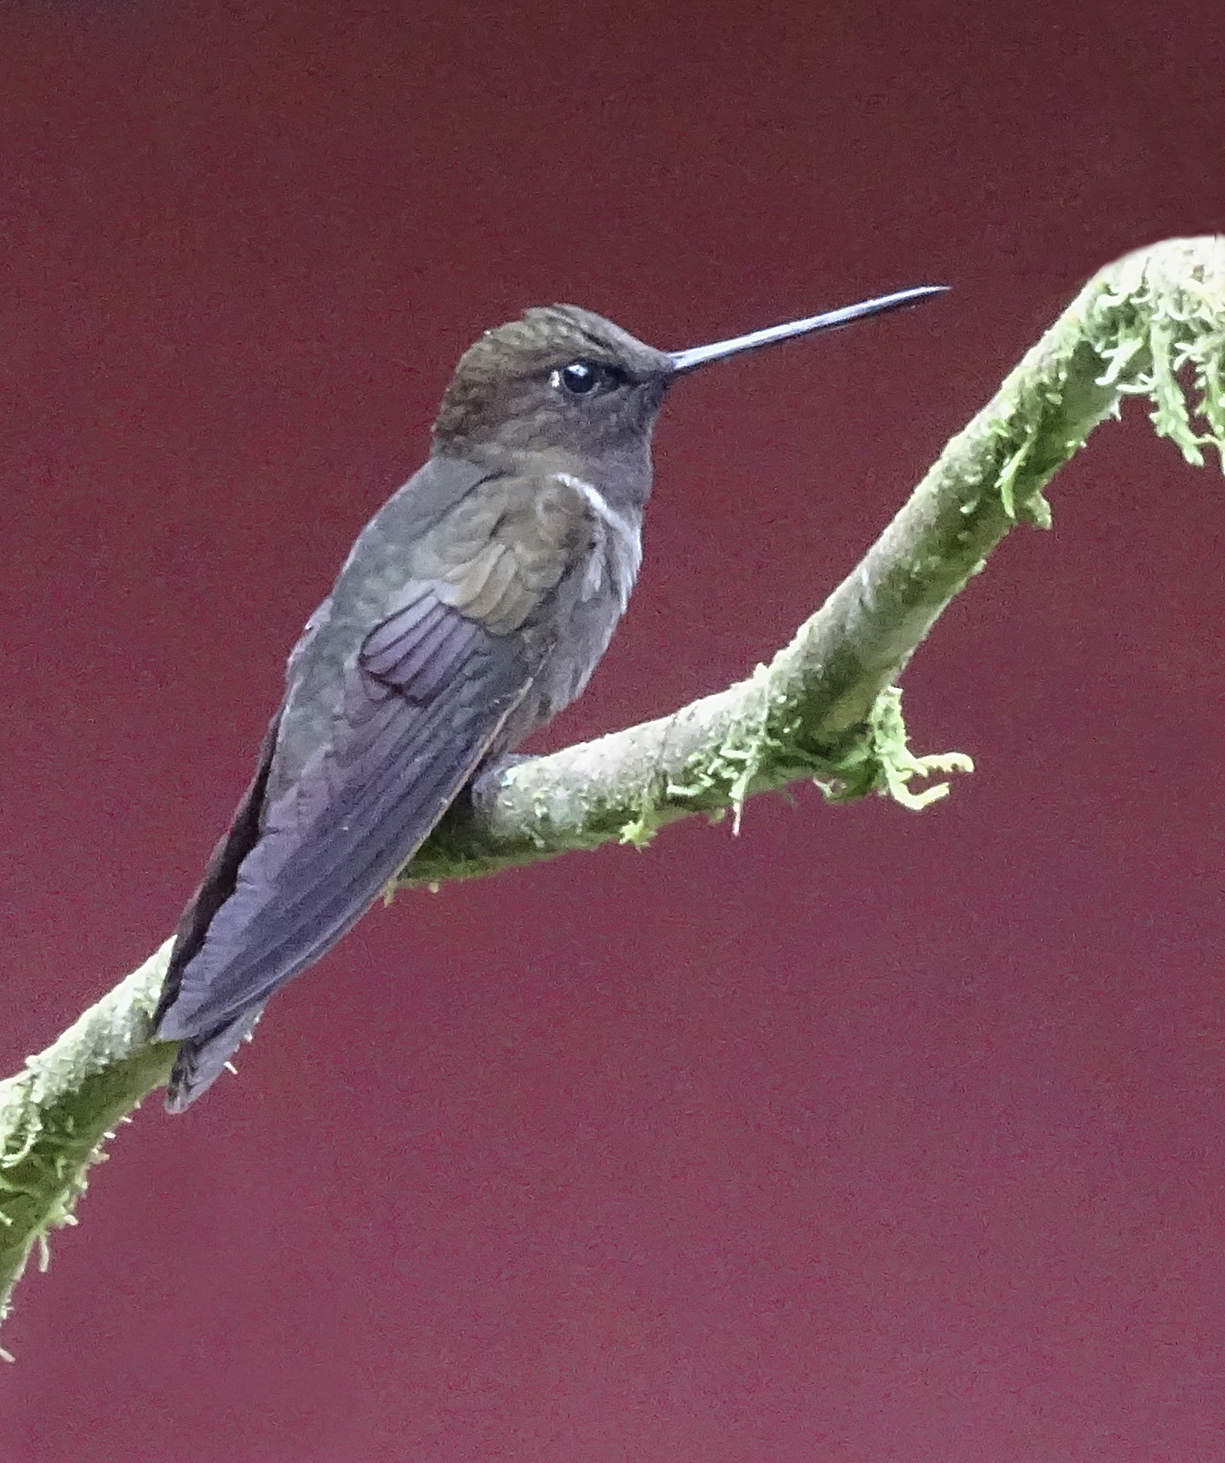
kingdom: Animalia
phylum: Chordata
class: Aves
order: Apodiformes
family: Trochilidae
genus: Coeligena
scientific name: Coeligena wilsoni
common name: Brown inca
